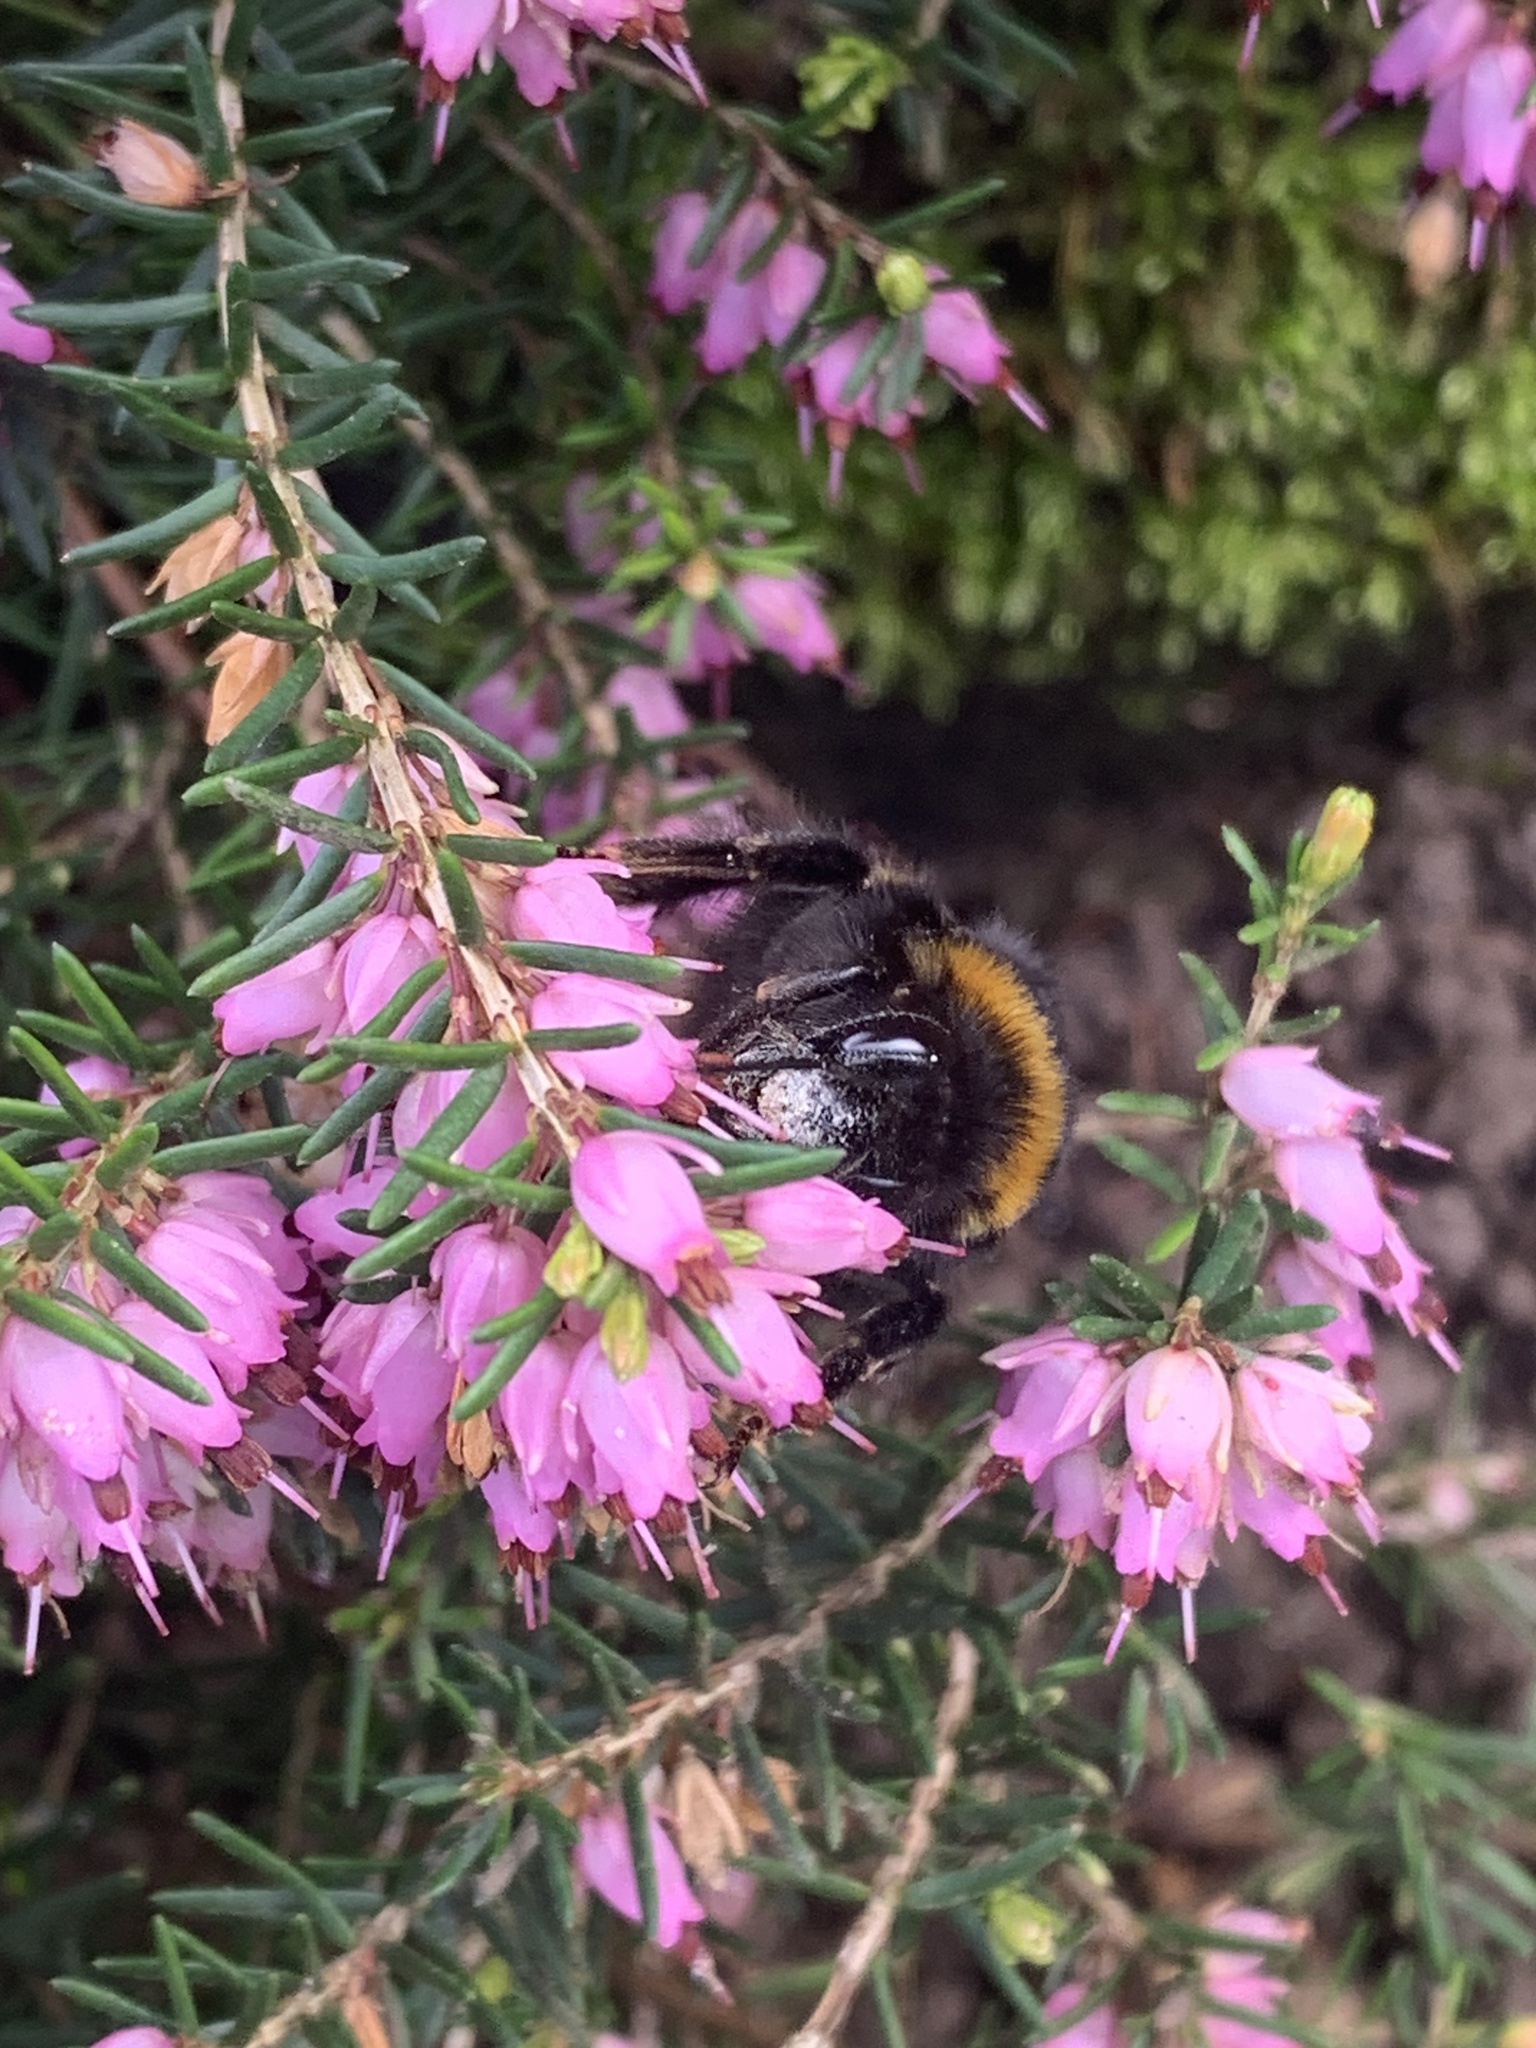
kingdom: Animalia
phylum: Arthropoda
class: Insecta
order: Hymenoptera
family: Apidae
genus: Bombus
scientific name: Bombus terrestris
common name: Buff-tailed bumblebee
